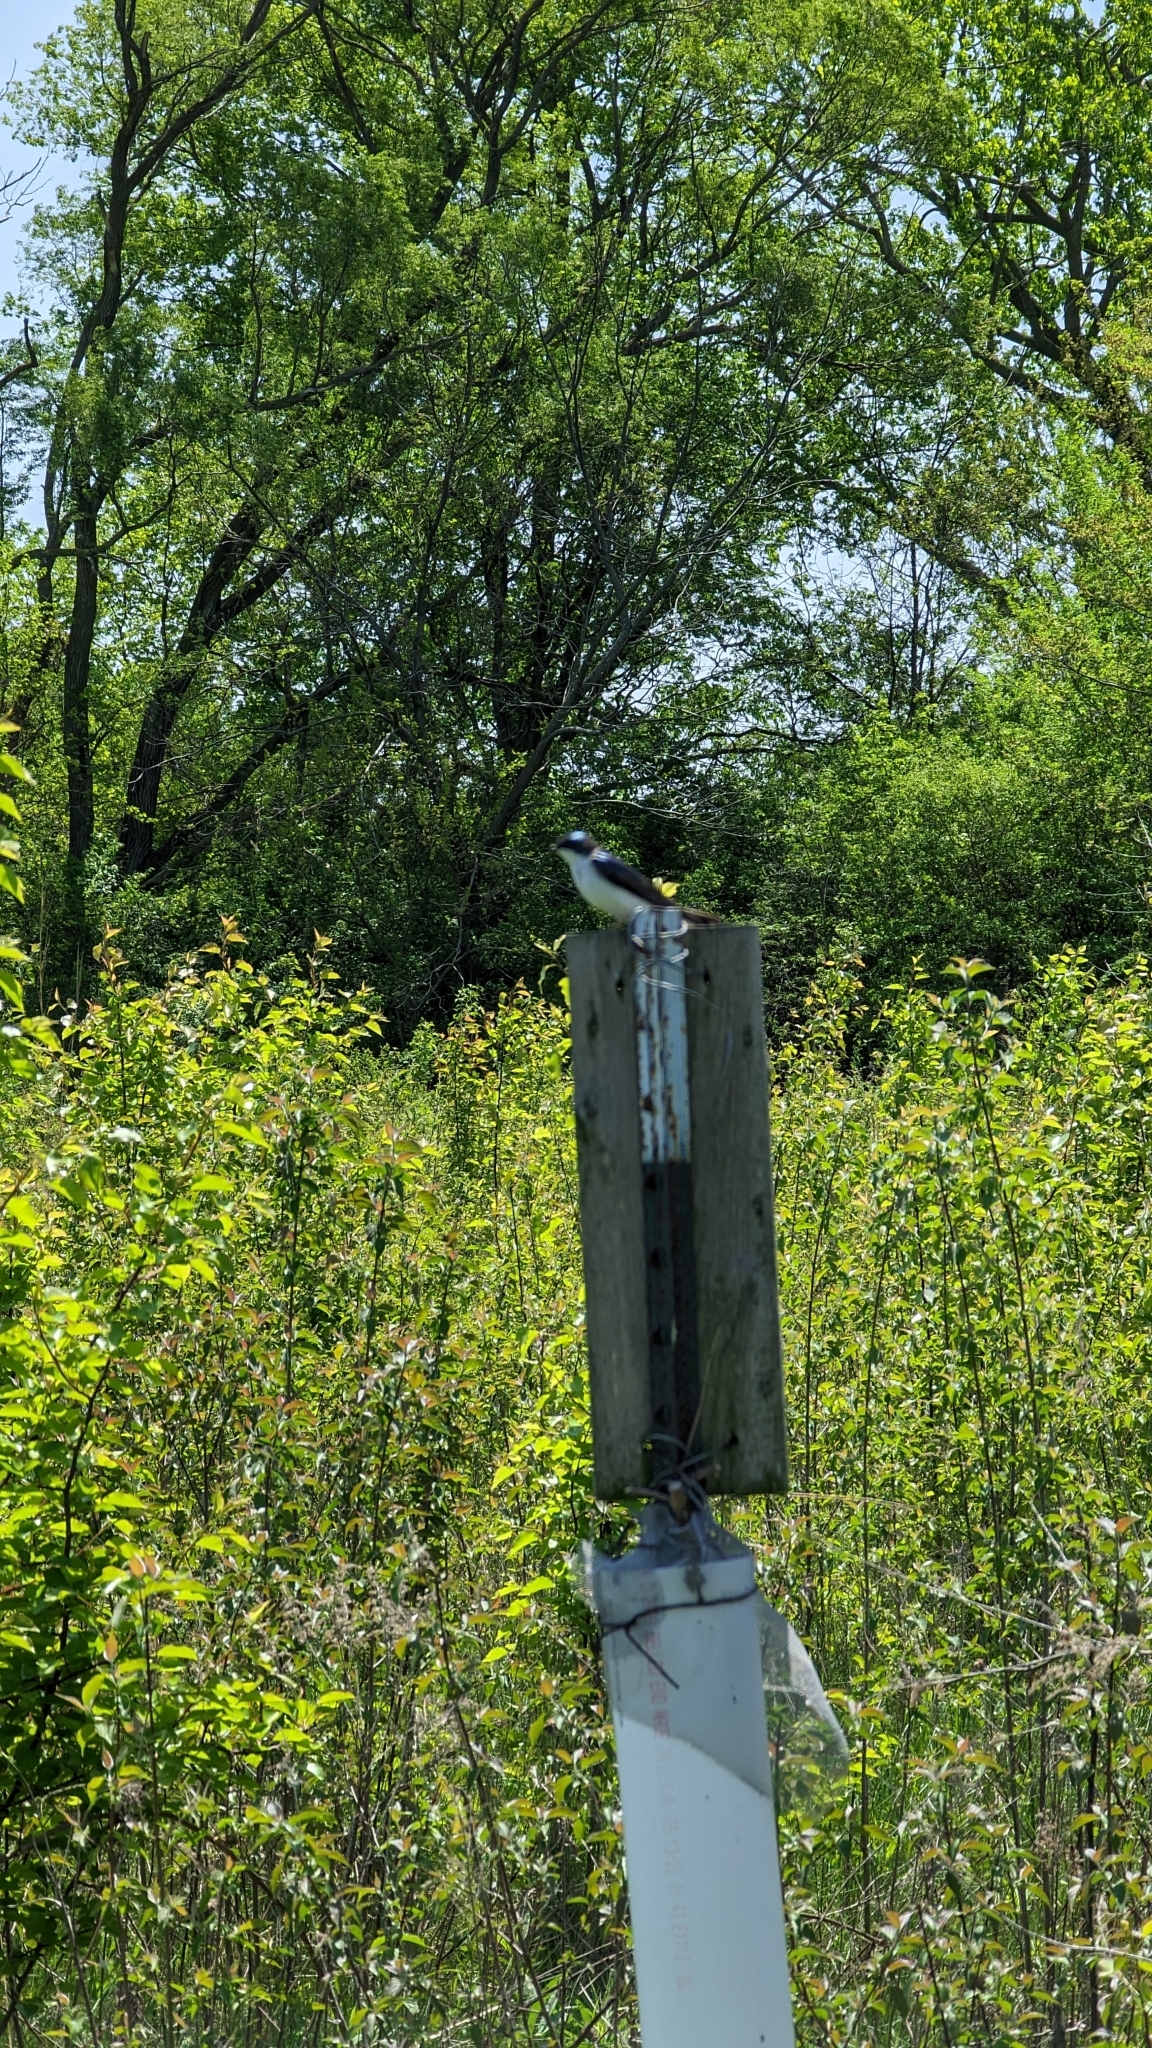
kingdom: Animalia
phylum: Chordata
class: Aves
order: Passeriformes
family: Hirundinidae
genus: Tachycineta
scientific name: Tachycineta bicolor
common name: Tree swallow
